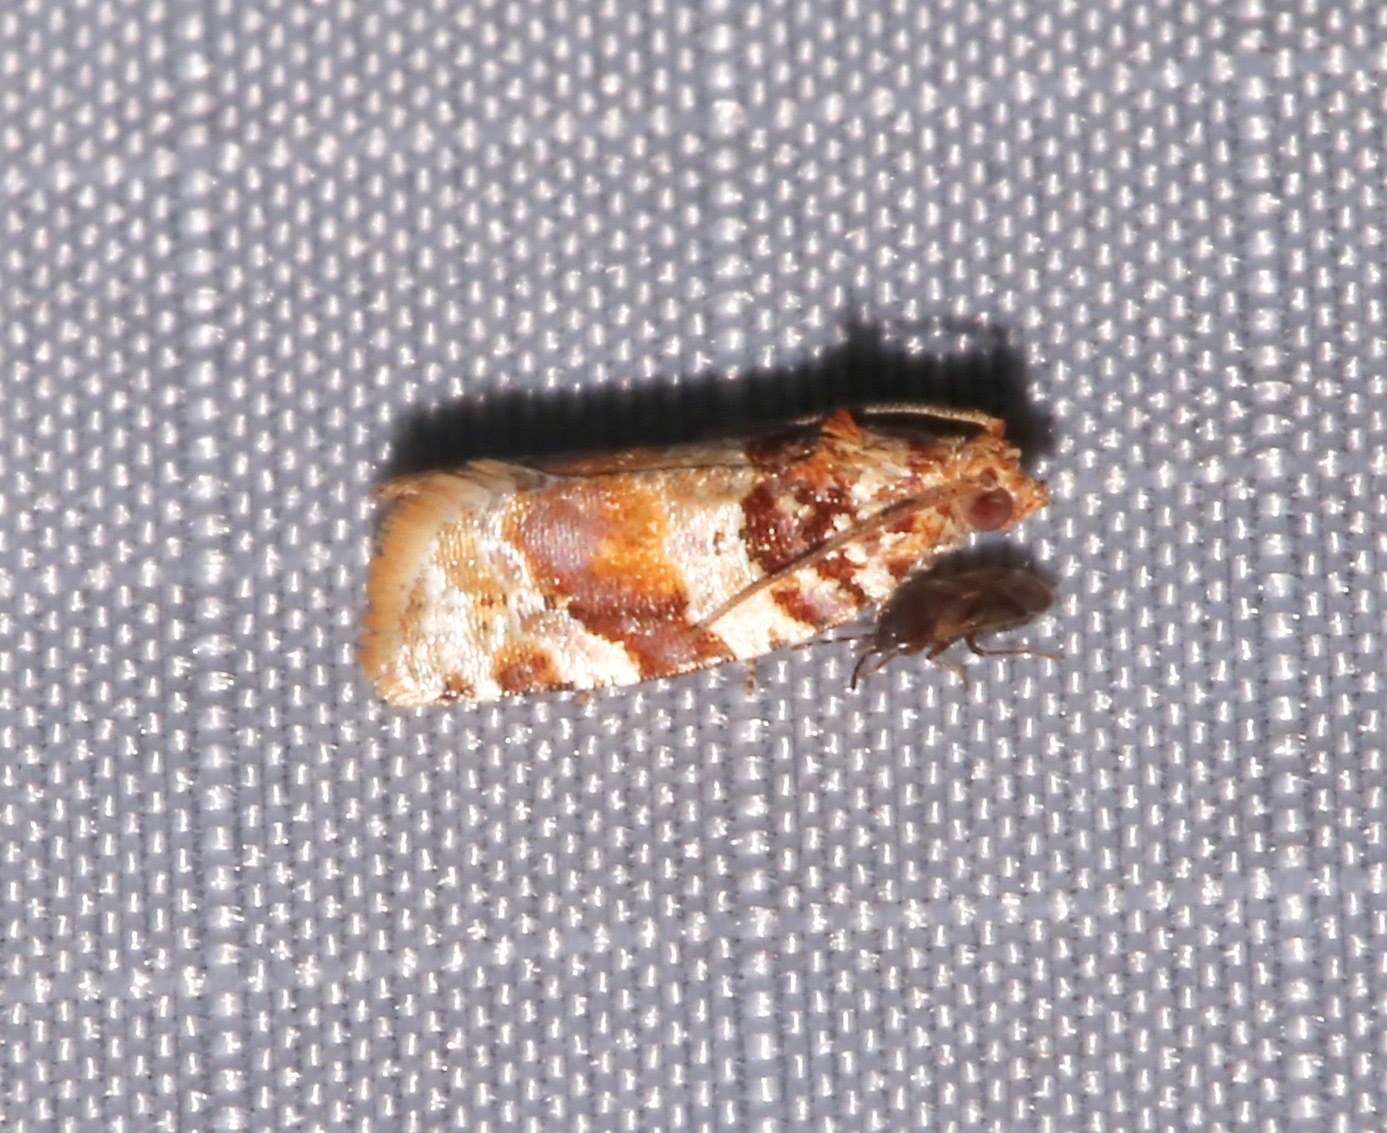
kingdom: Animalia
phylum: Arthropoda
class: Insecta
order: Lepidoptera
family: Tortricidae
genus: Argyrotaenia
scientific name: Argyrotaenia kimballi
